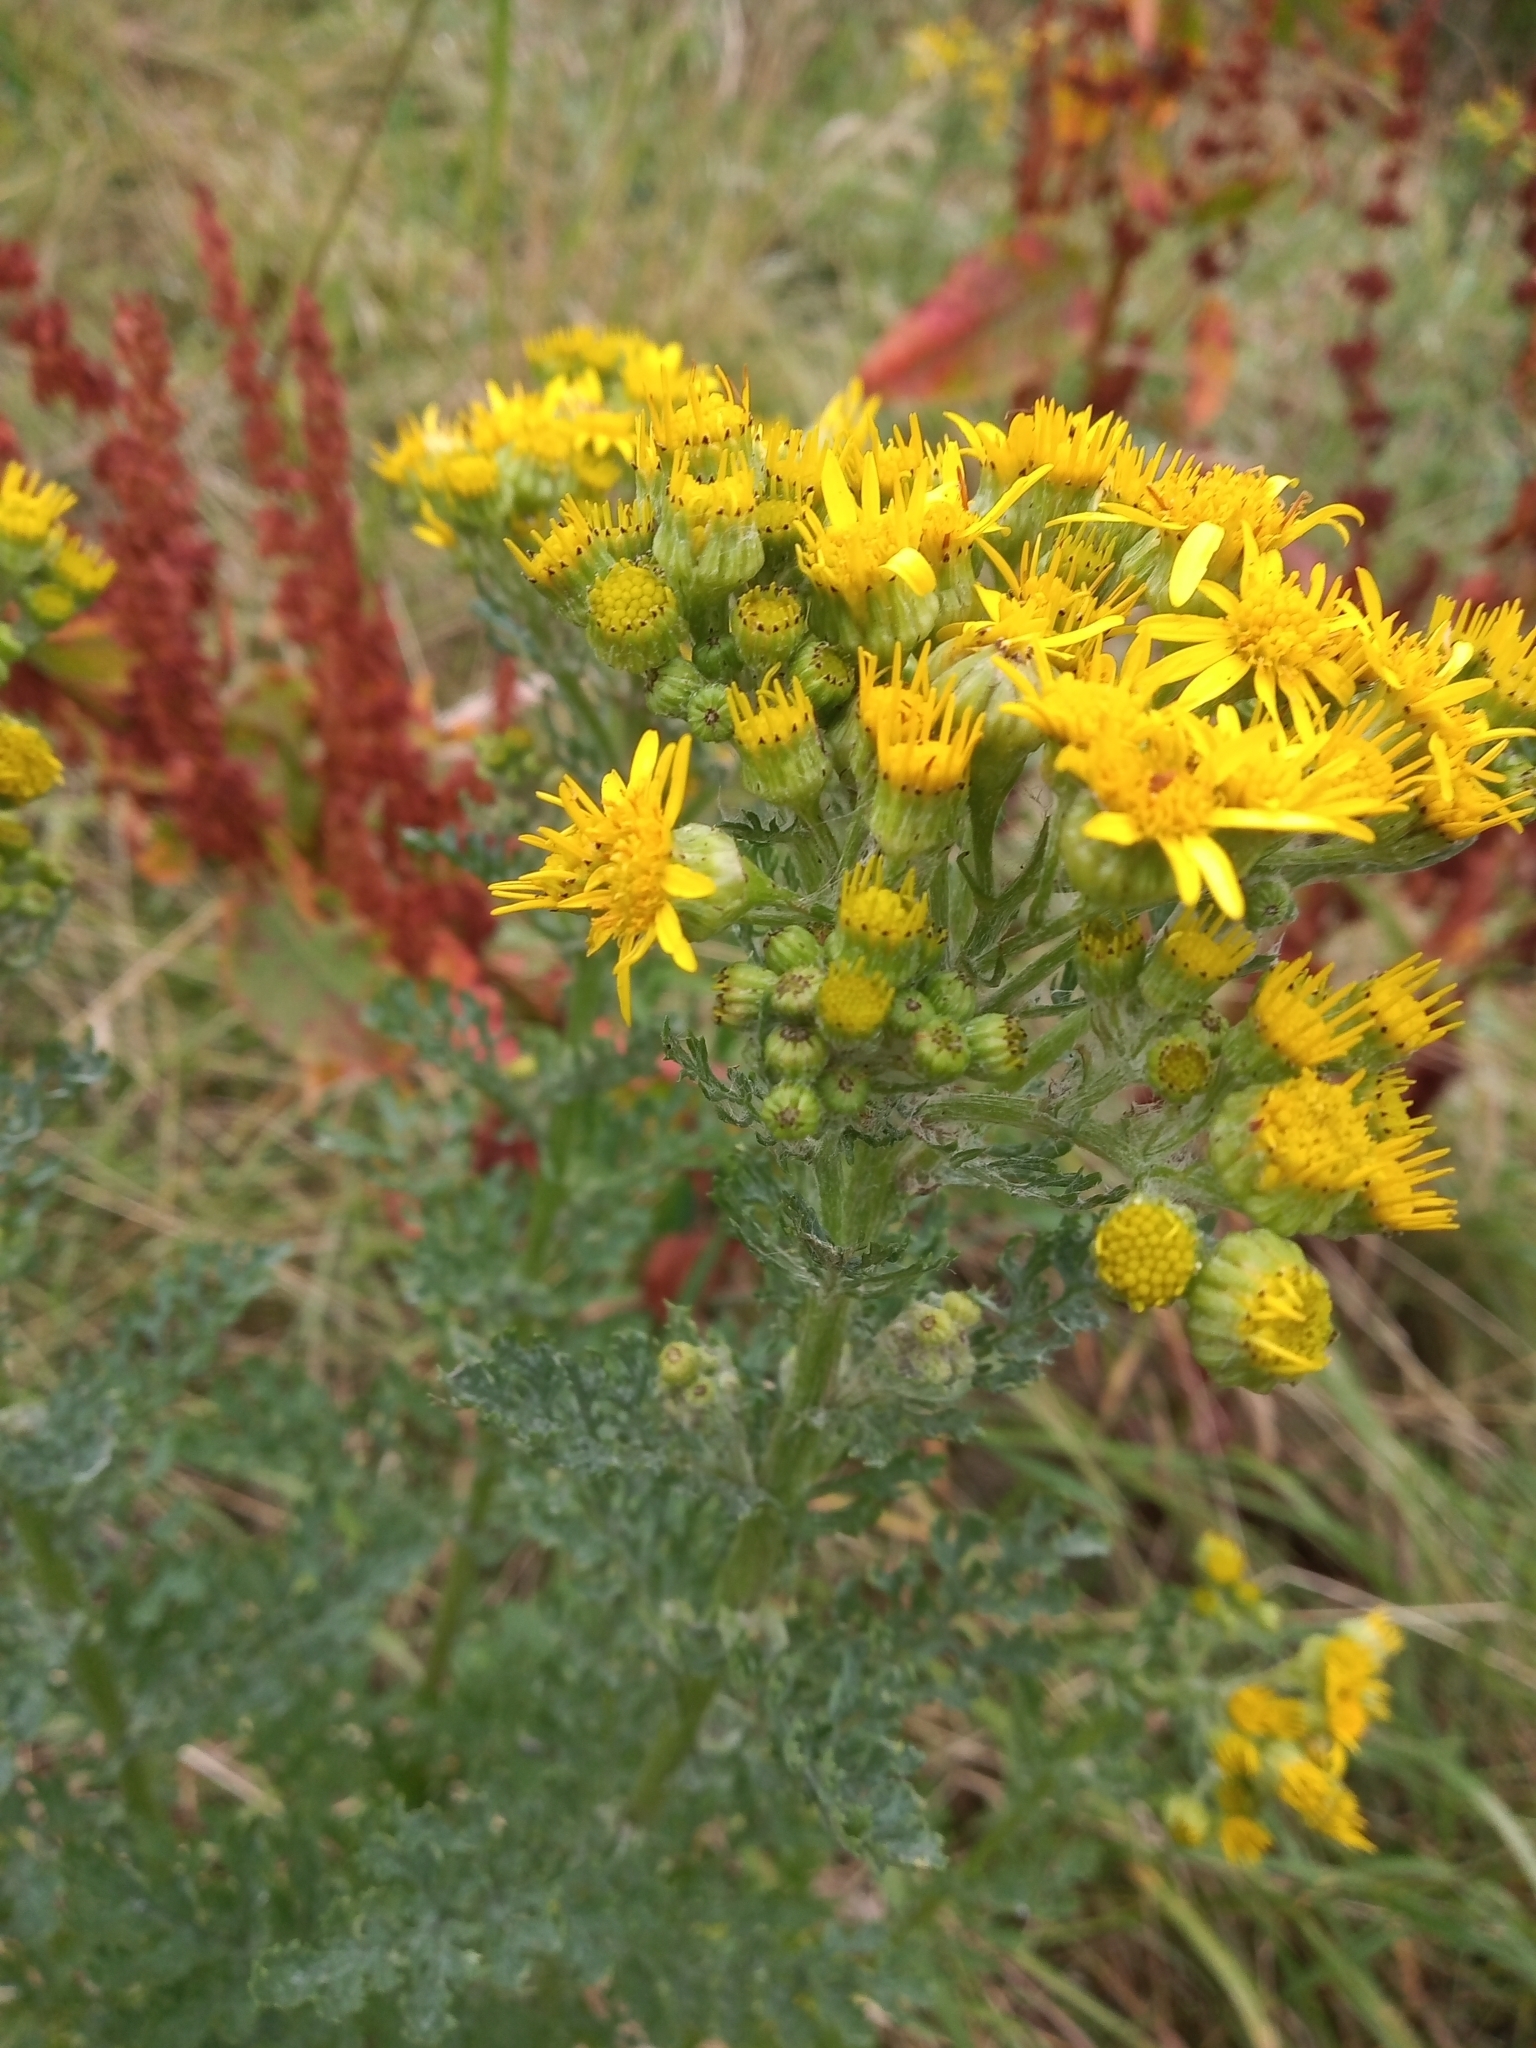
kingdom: Plantae
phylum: Tracheophyta
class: Magnoliopsida
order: Asterales
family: Asteraceae
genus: Jacobaea
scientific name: Jacobaea vulgaris
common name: Stinking willie
